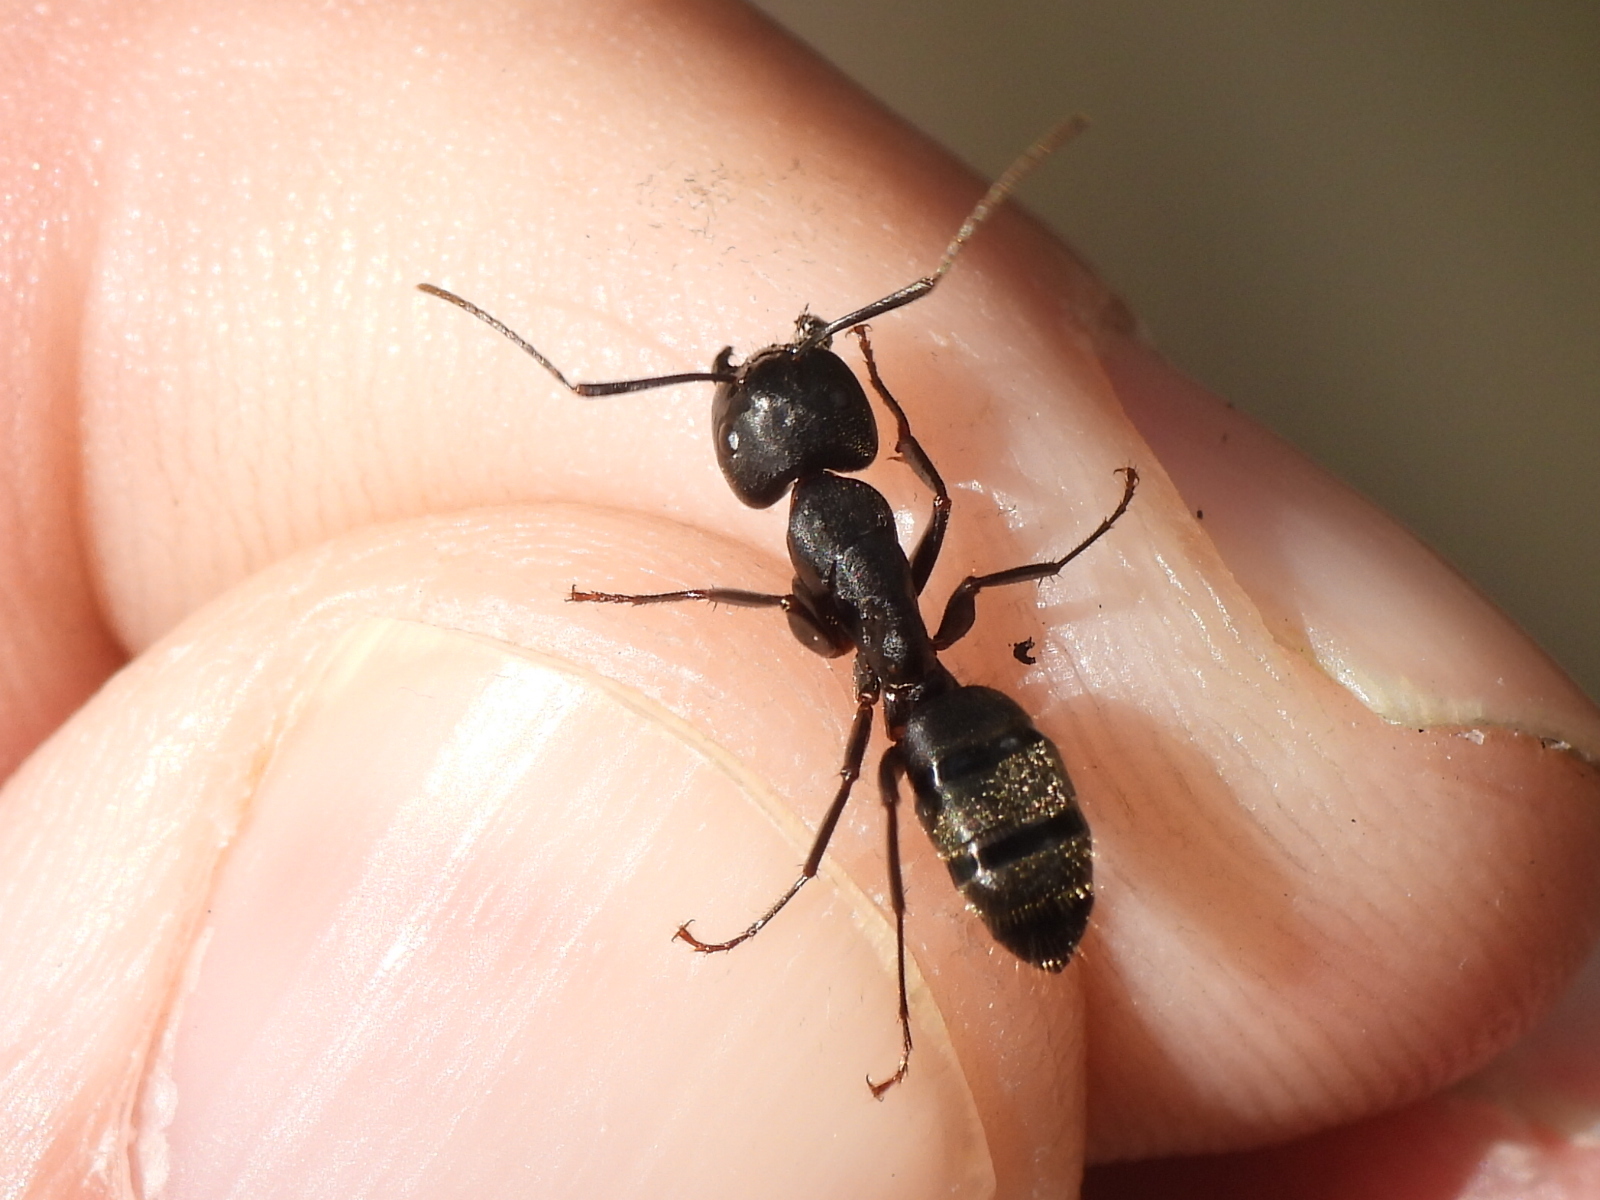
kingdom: Animalia
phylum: Arthropoda
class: Insecta
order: Hymenoptera
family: Formicidae
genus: Camponotus
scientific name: Camponotus pennsylvanicus
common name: Black carpenter ant
